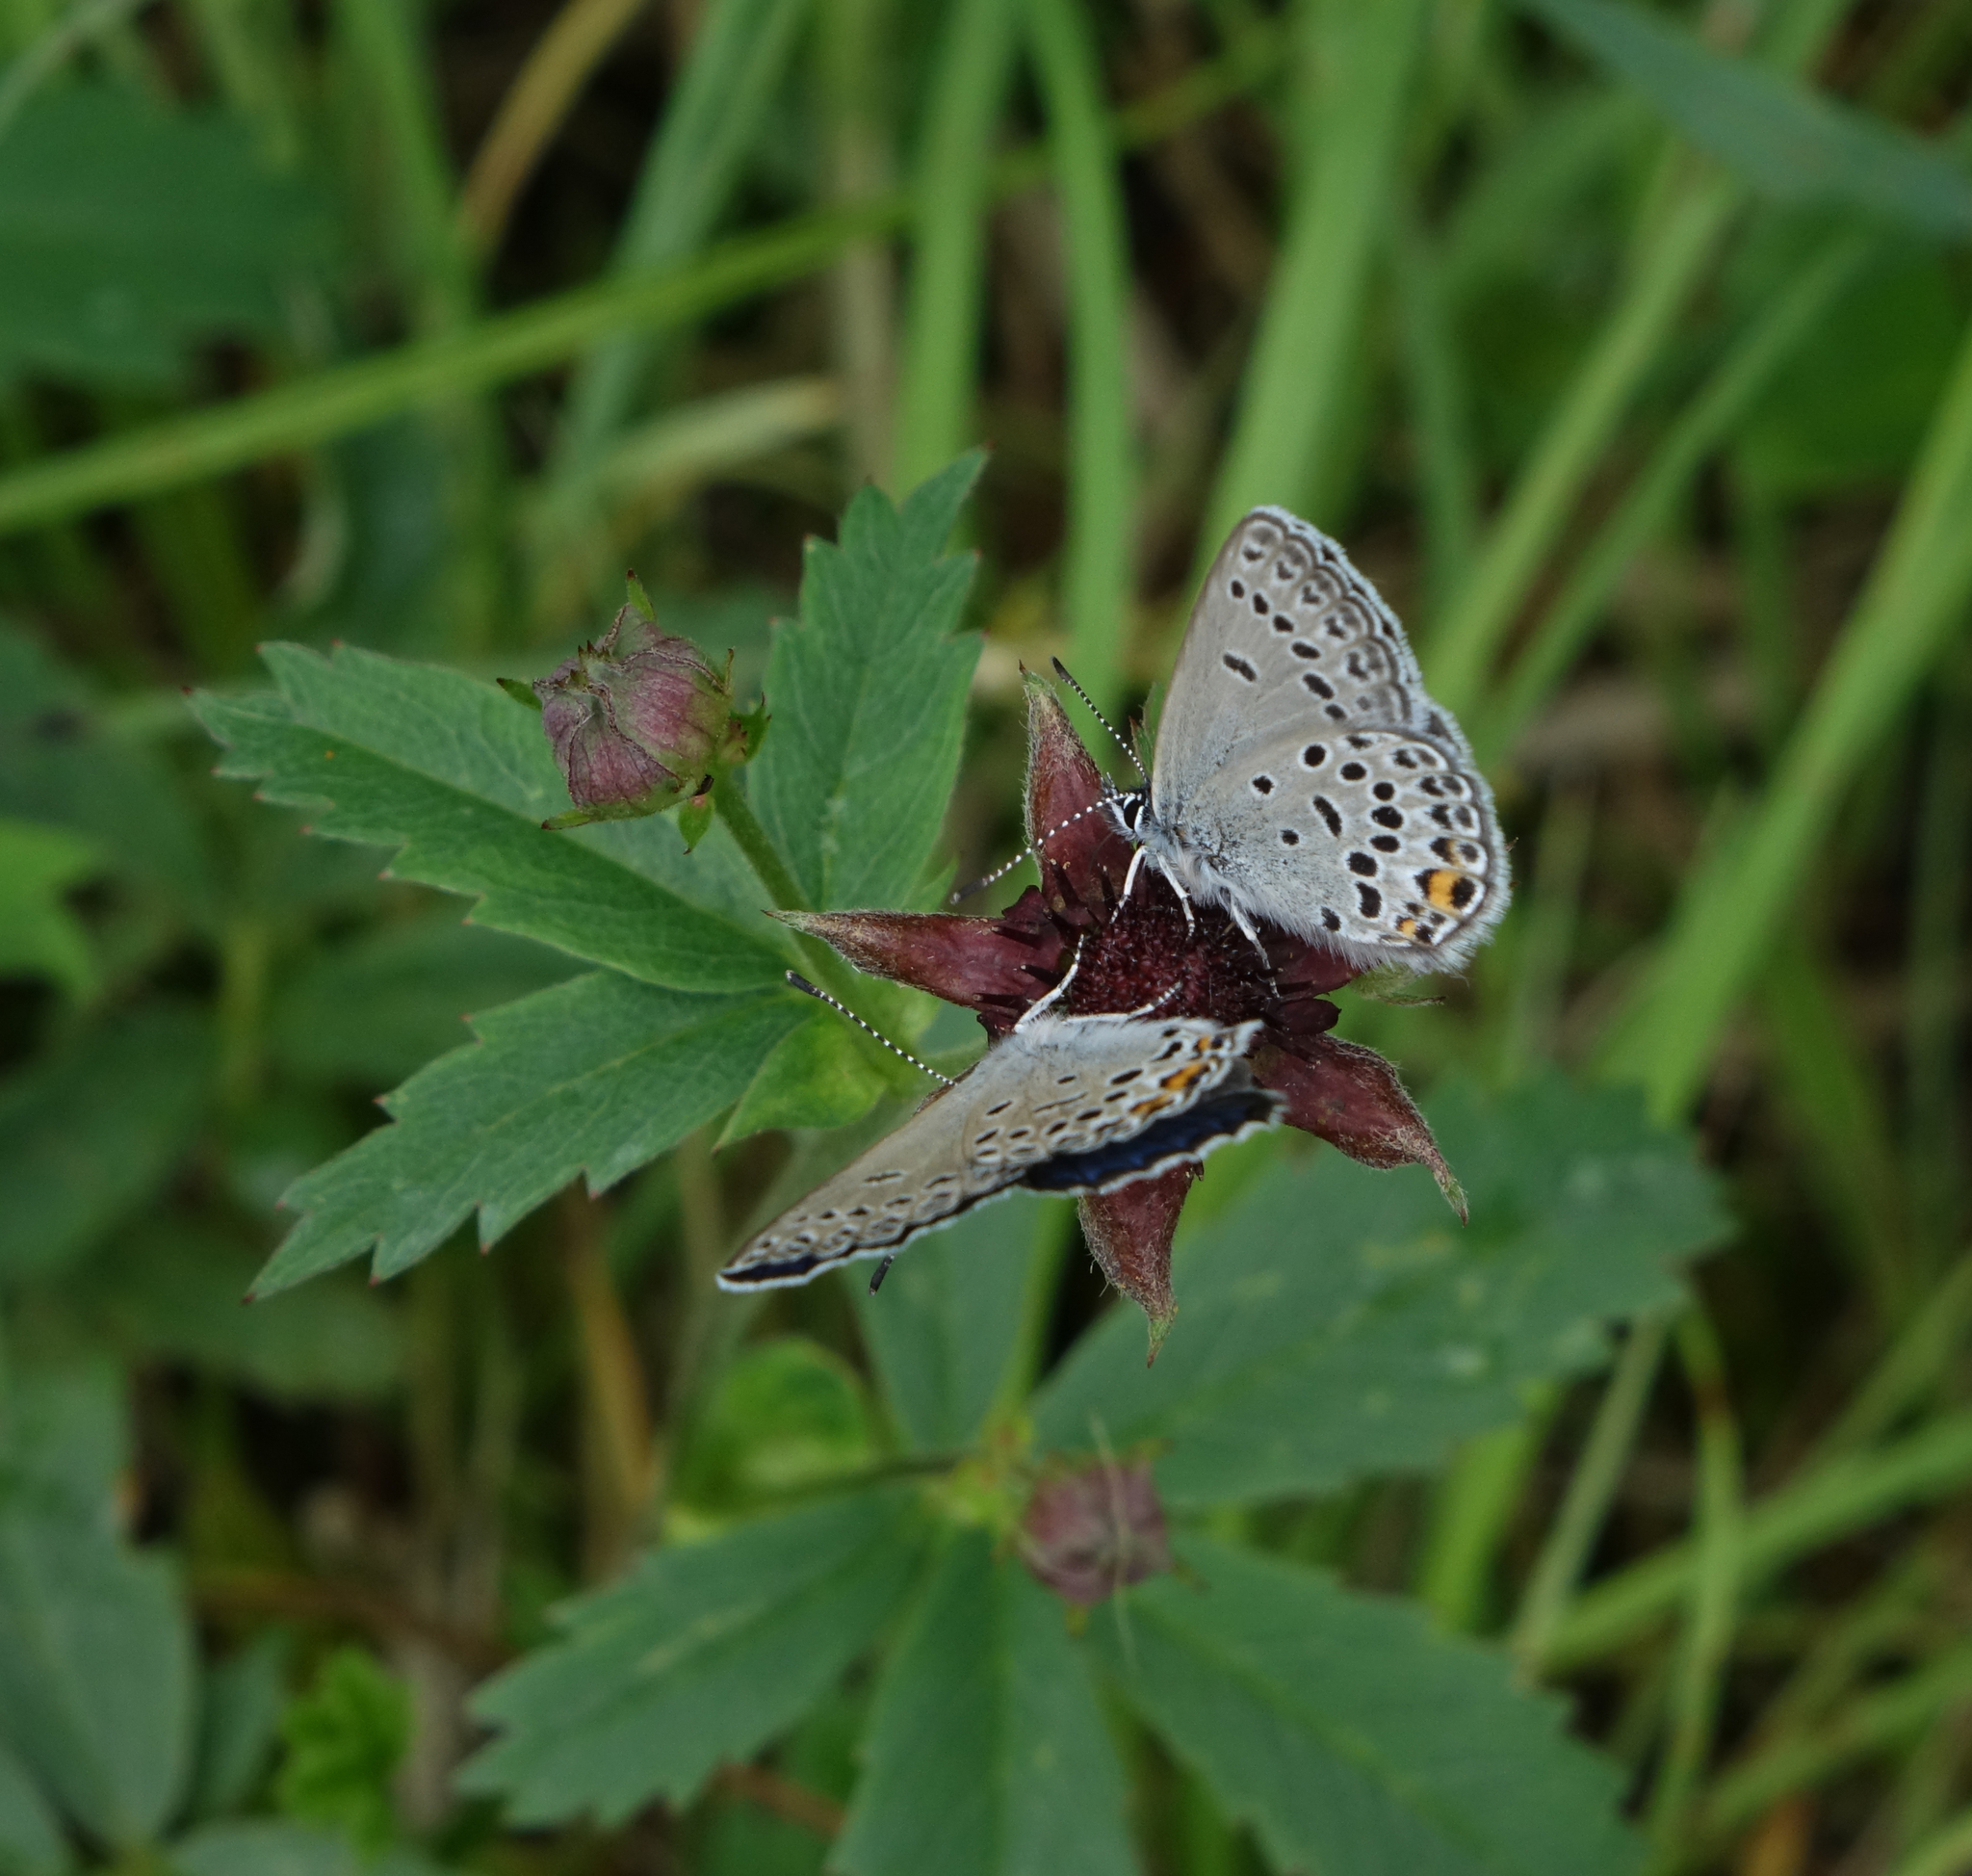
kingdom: Plantae
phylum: Tracheophyta
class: Magnoliopsida
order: Rosales
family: Rosaceae
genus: Comarum
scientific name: Comarum palustre
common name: Marsh cinquefoil
